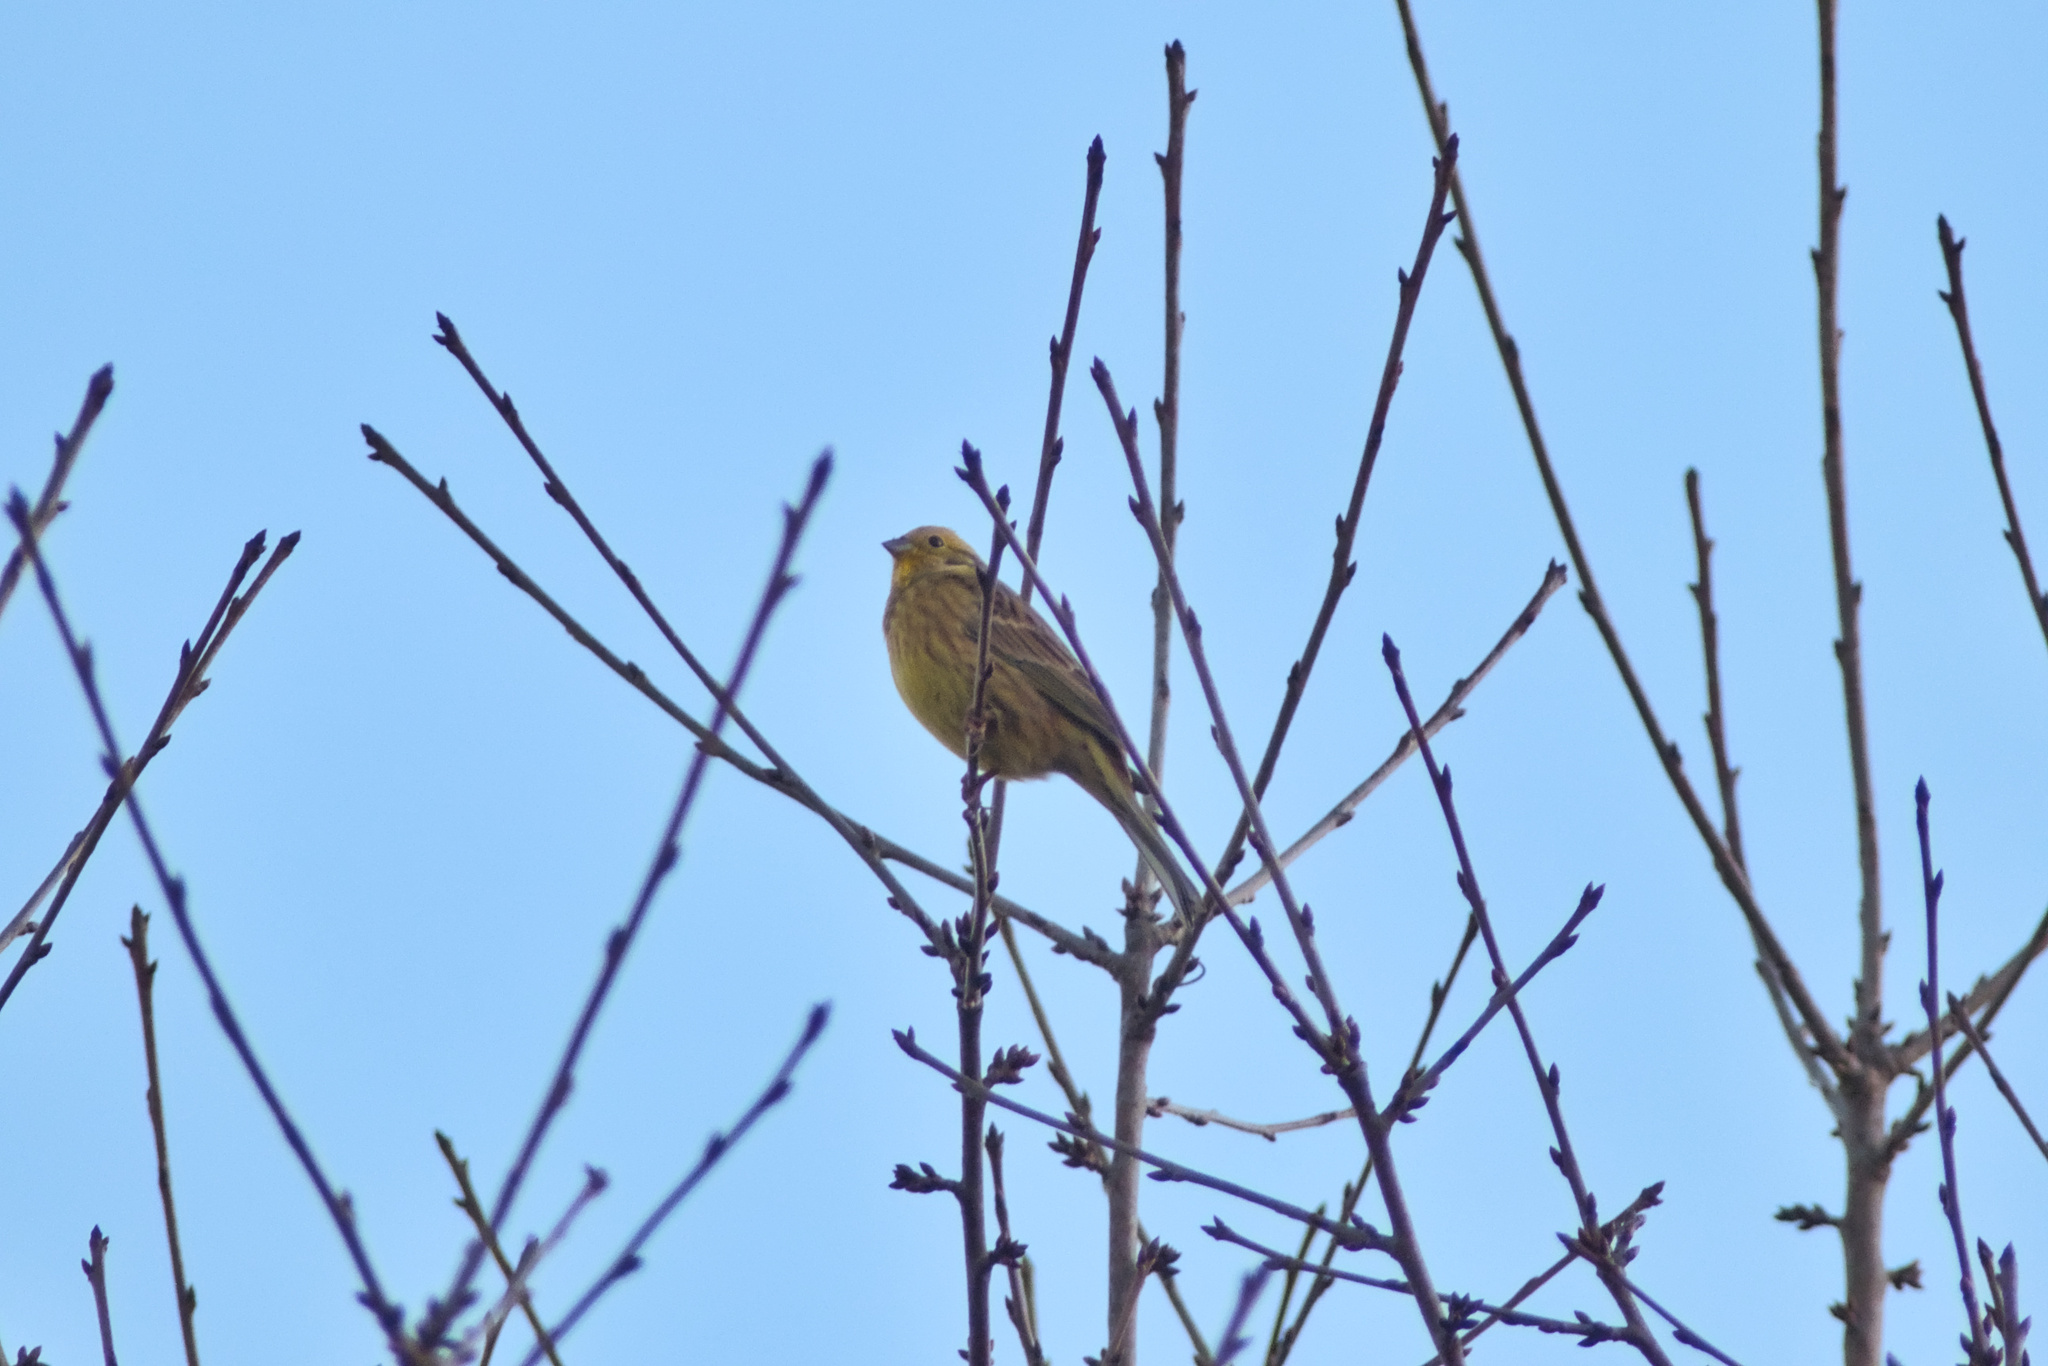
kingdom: Animalia
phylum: Chordata
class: Aves
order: Passeriformes
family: Emberizidae
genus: Emberiza
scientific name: Emberiza citrinella
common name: Yellowhammer
